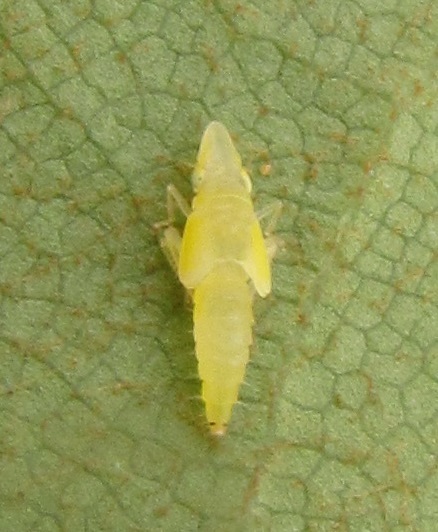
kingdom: Animalia
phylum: Arthropoda
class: Insecta
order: Hemiptera
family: Cicadellidae
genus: Sophonia
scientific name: Sophonia orientalis
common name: Two-spotted leafhopper
